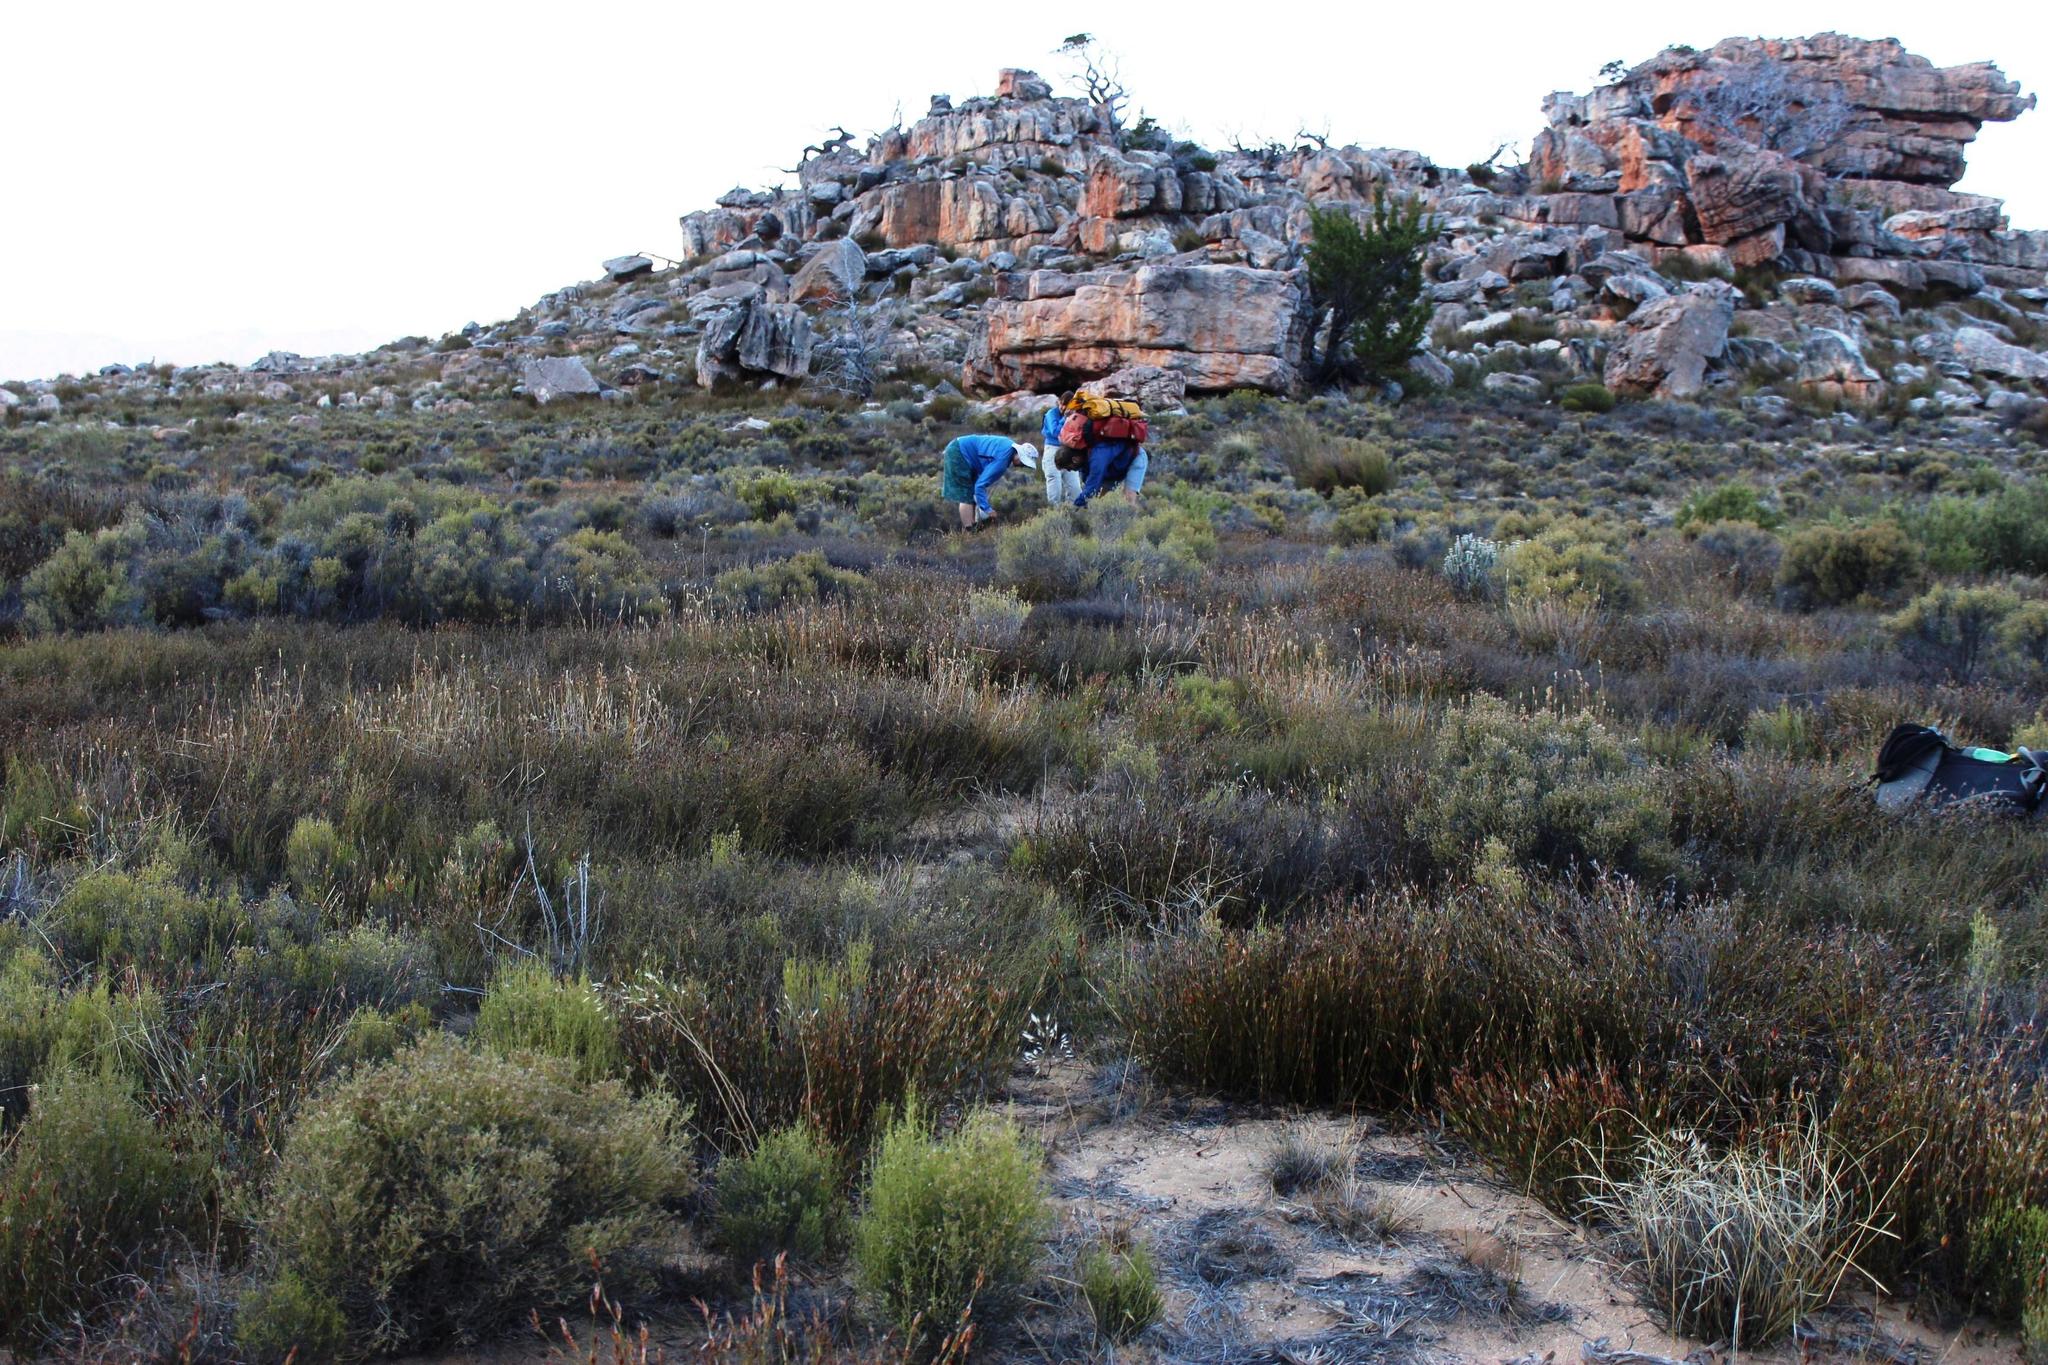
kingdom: Plantae
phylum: Tracheophyta
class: Liliopsida
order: Poales
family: Restionaceae
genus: Willdenowia
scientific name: Willdenowia sulcata
